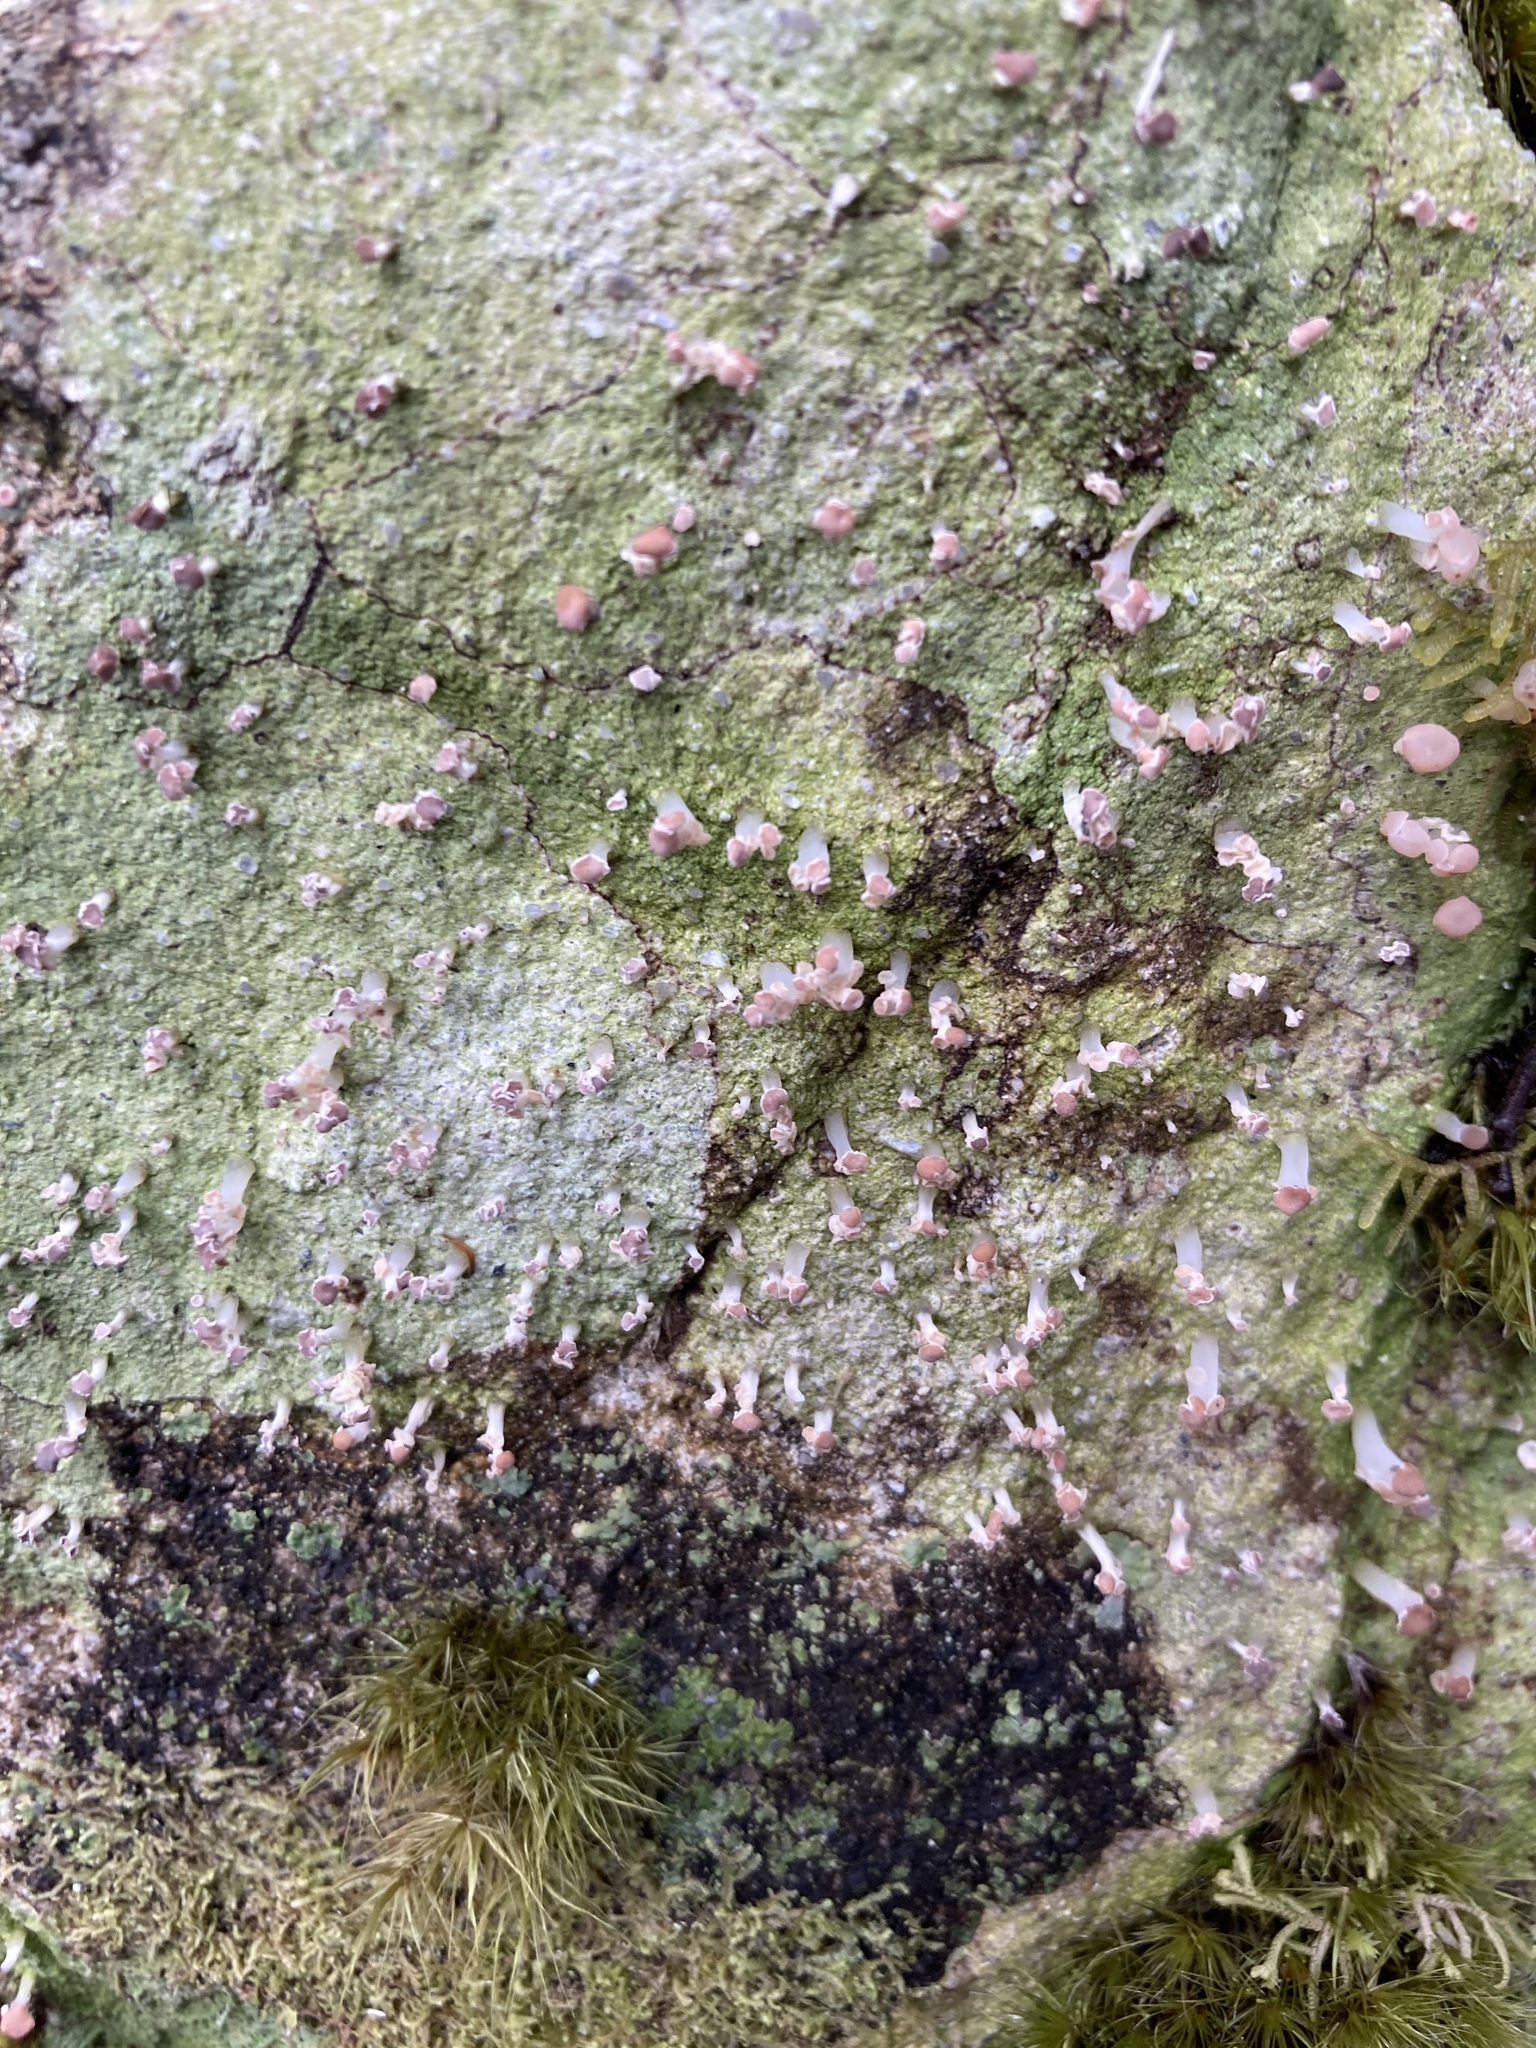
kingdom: Fungi
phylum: Ascomycota
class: Lecanoromycetes
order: Baeomycetales
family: Baeomycetaceae
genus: Baeomyces
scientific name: Baeomyces heteromorphus
